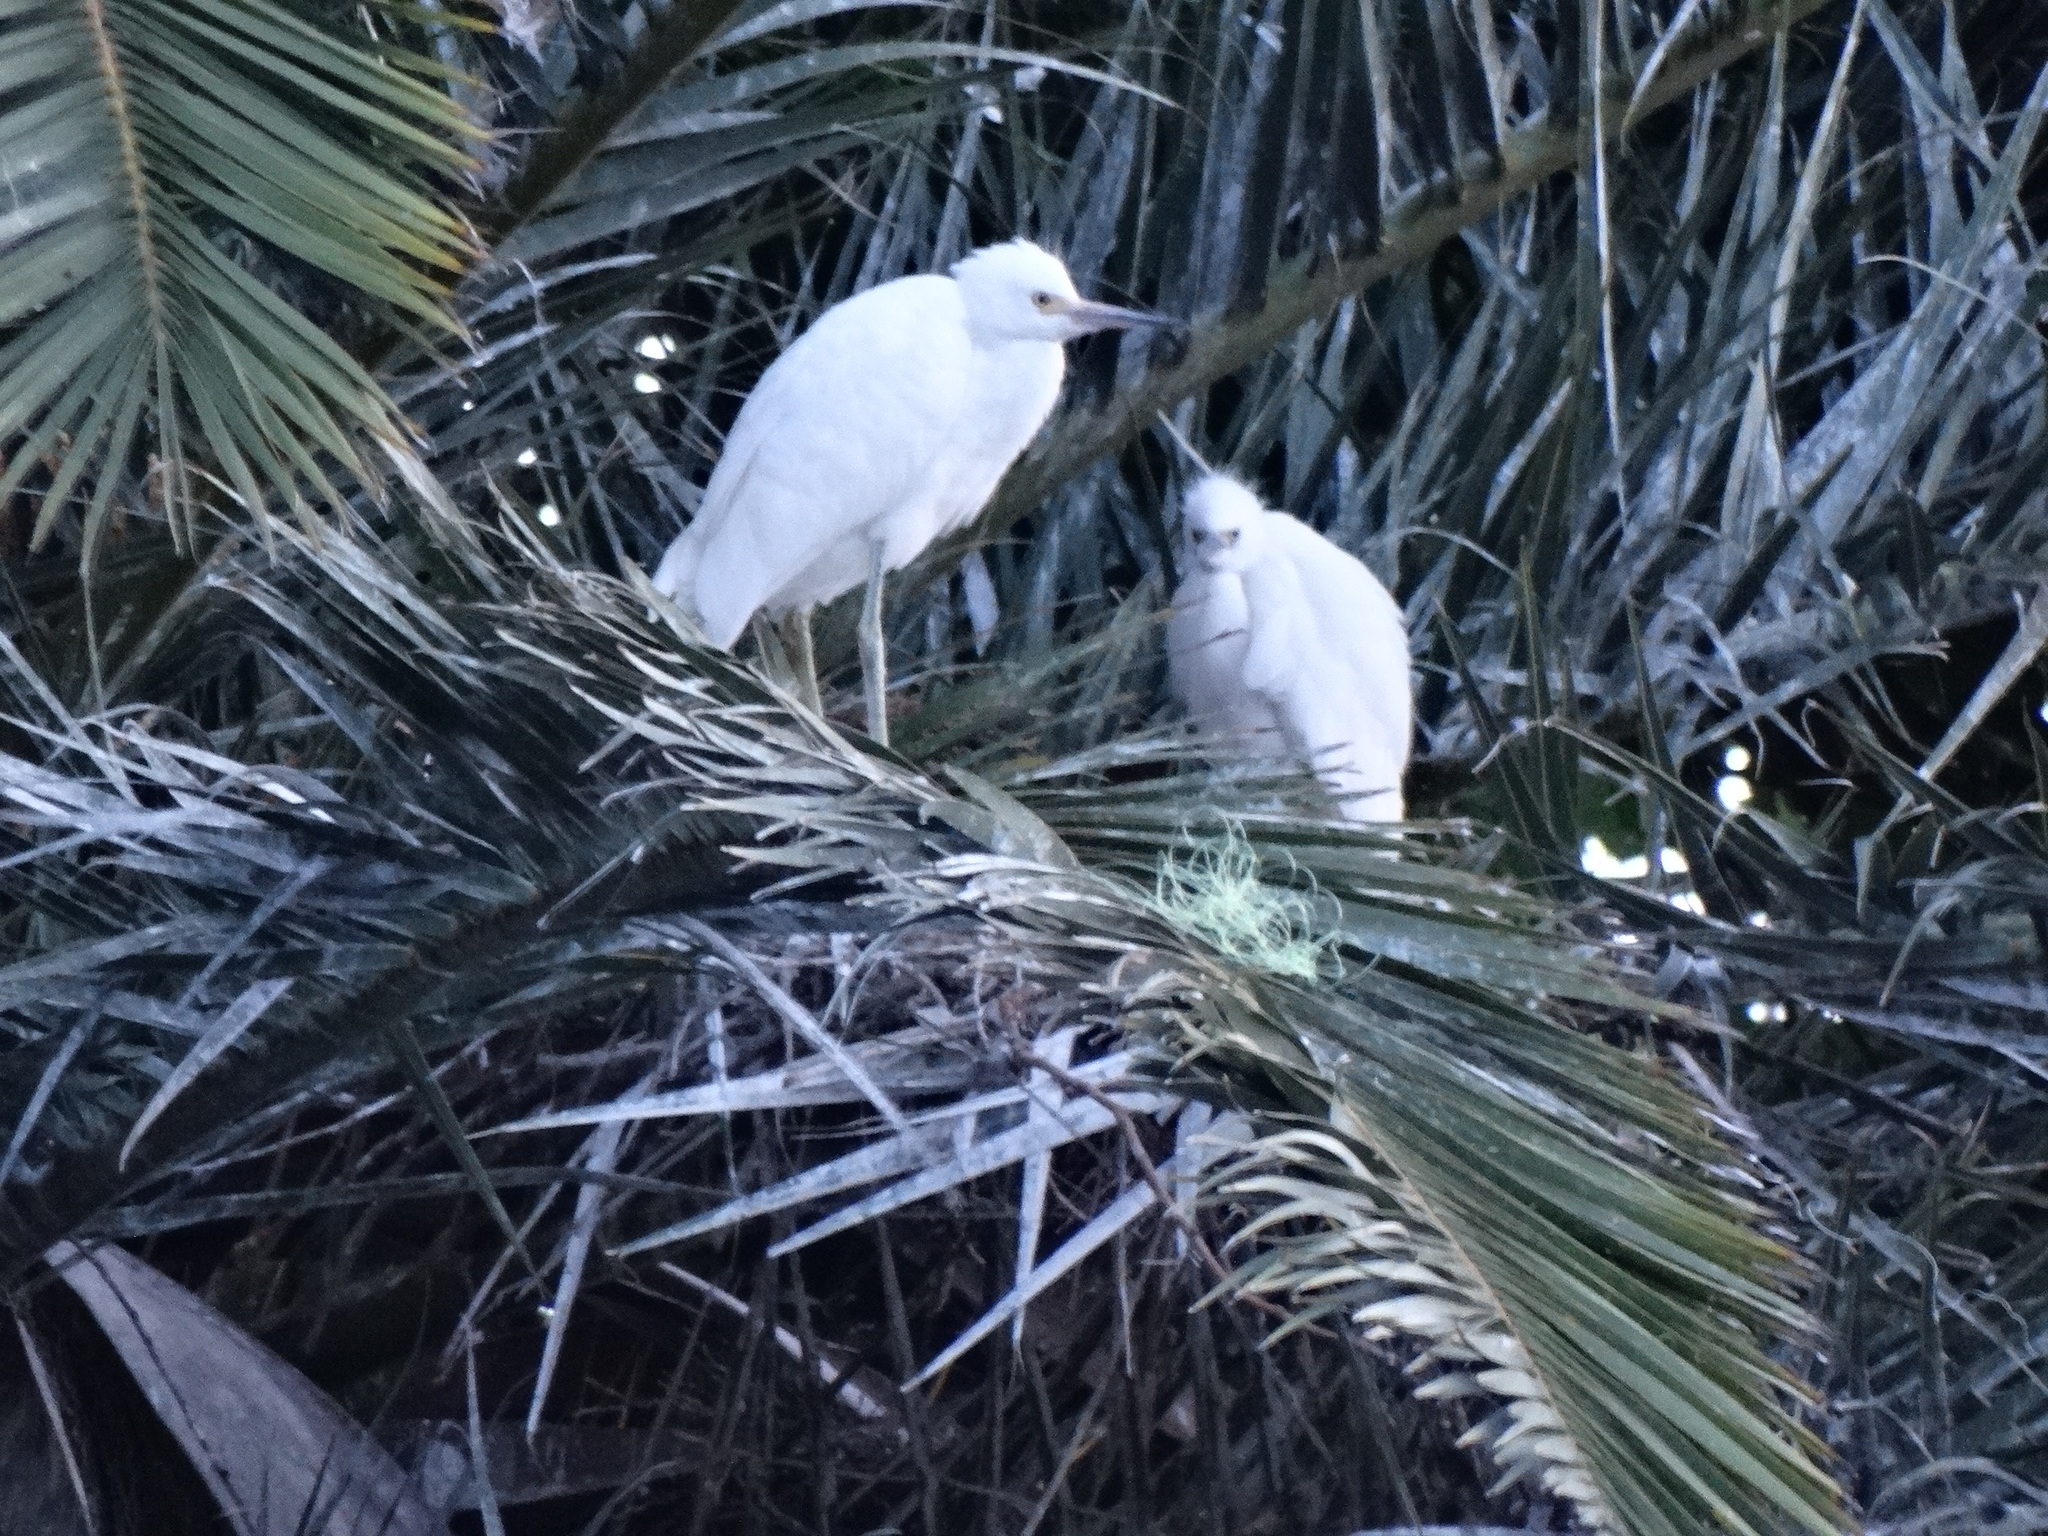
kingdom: Animalia
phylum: Chordata
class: Aves
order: Pelecaniformes
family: Ardeidae
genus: Egretta
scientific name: Egretta thula
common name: Snowy egret
